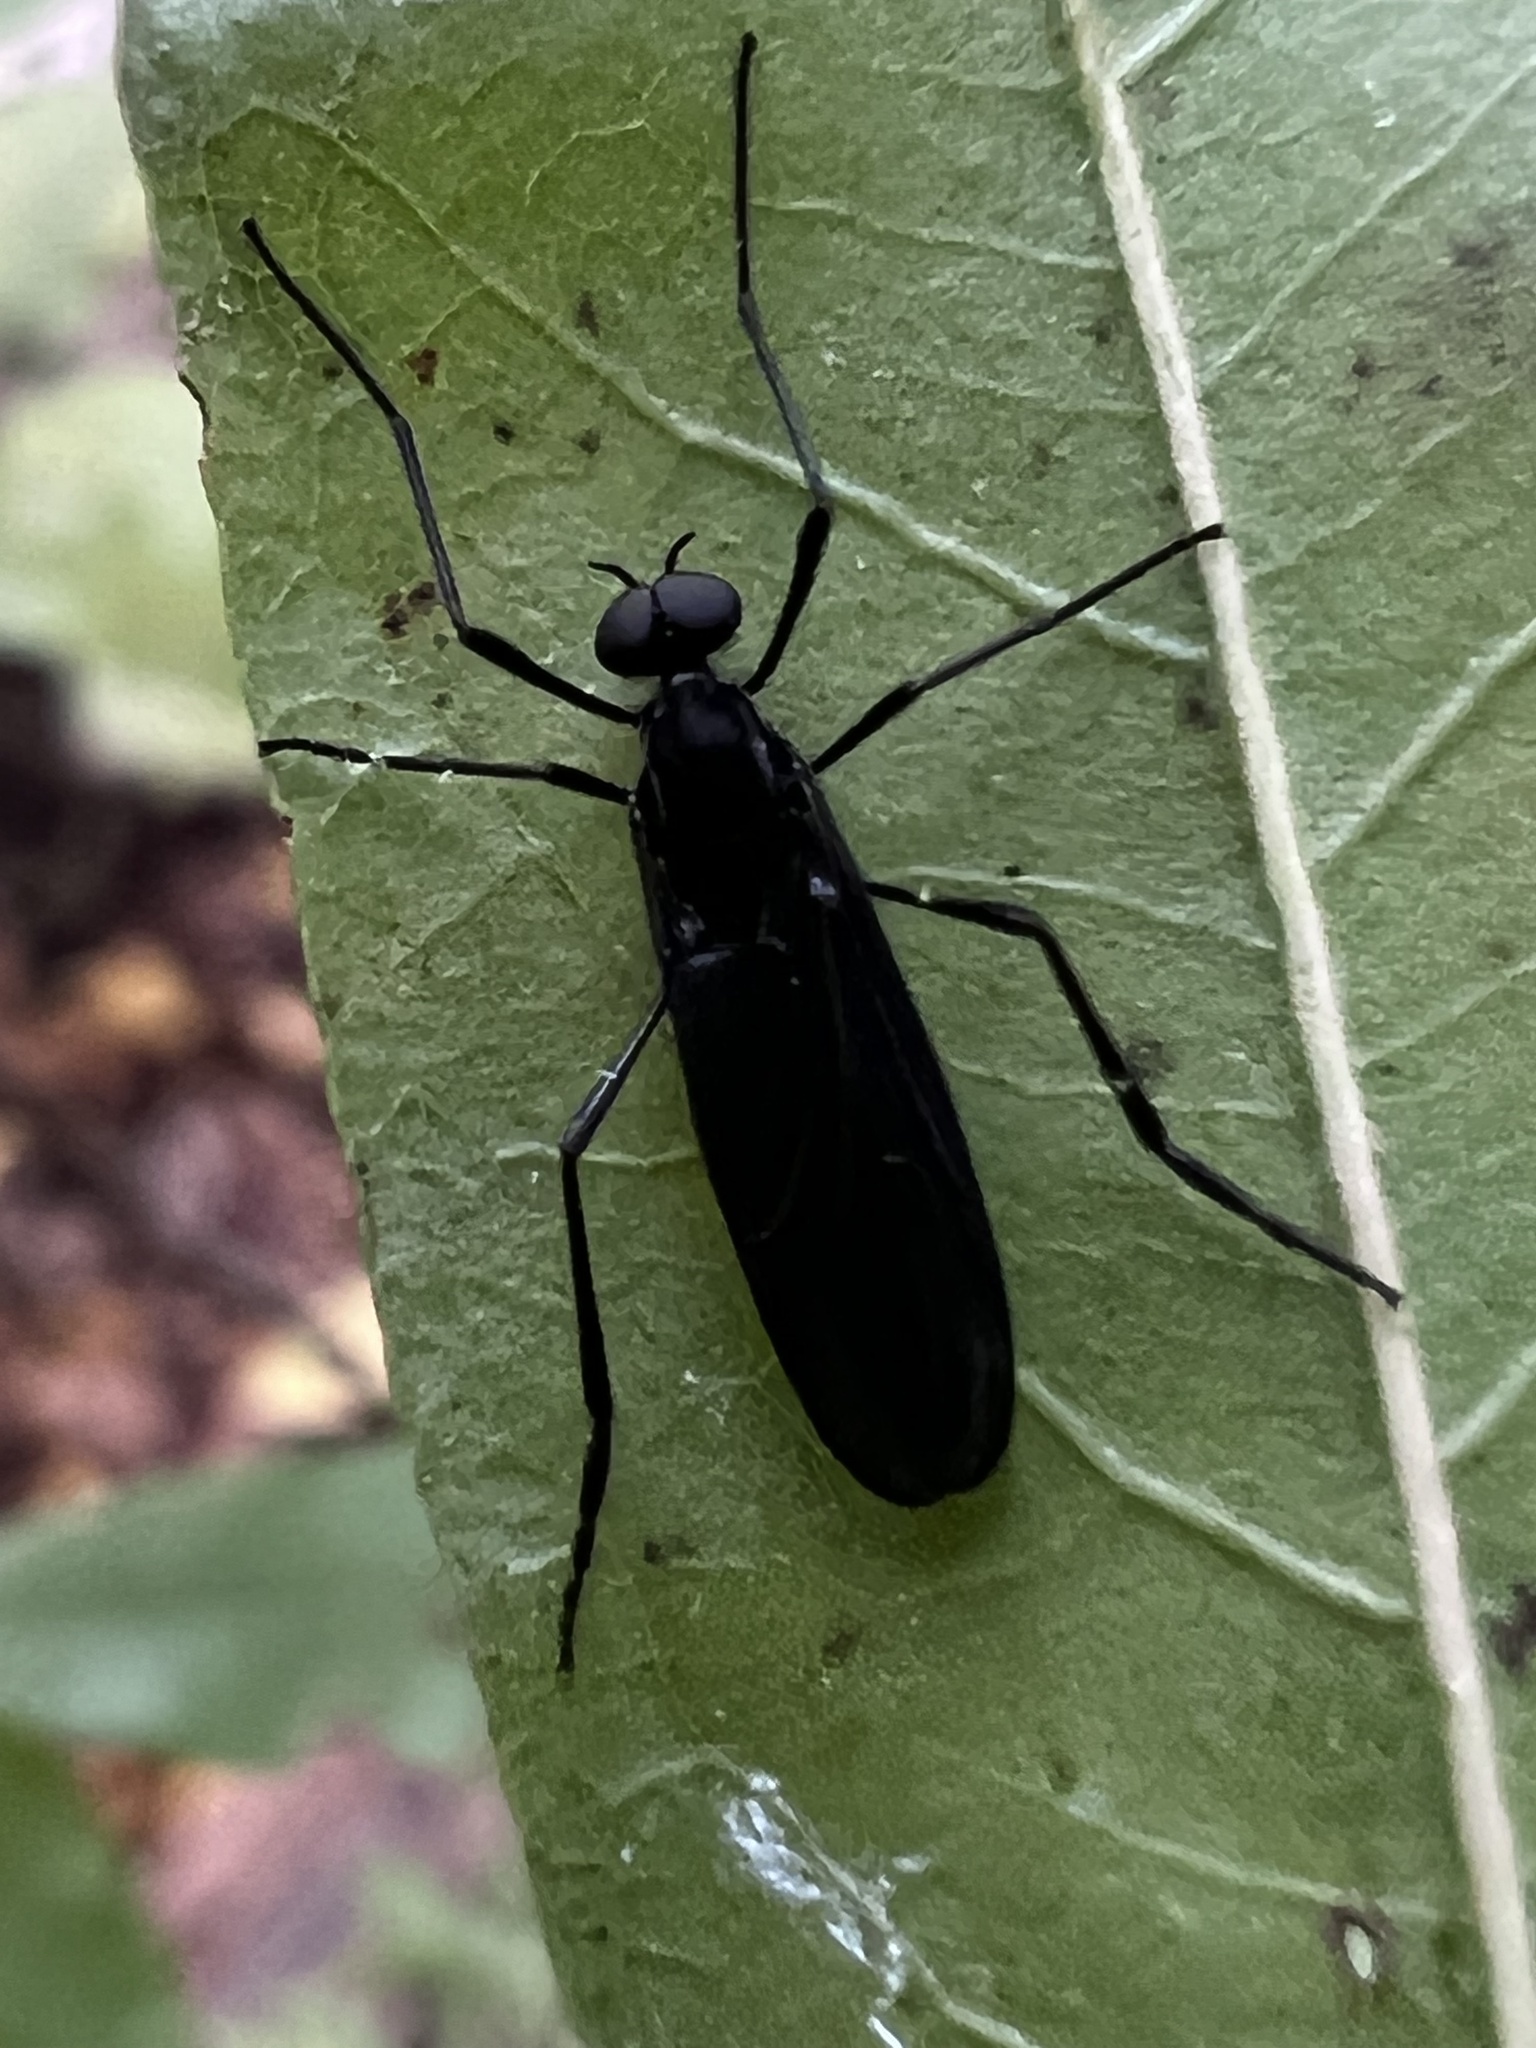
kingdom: Animalia
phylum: Arthropoda
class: Insecta
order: Diptera
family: Bibionidae
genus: Penthetria
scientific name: Penthetria heteroptera
